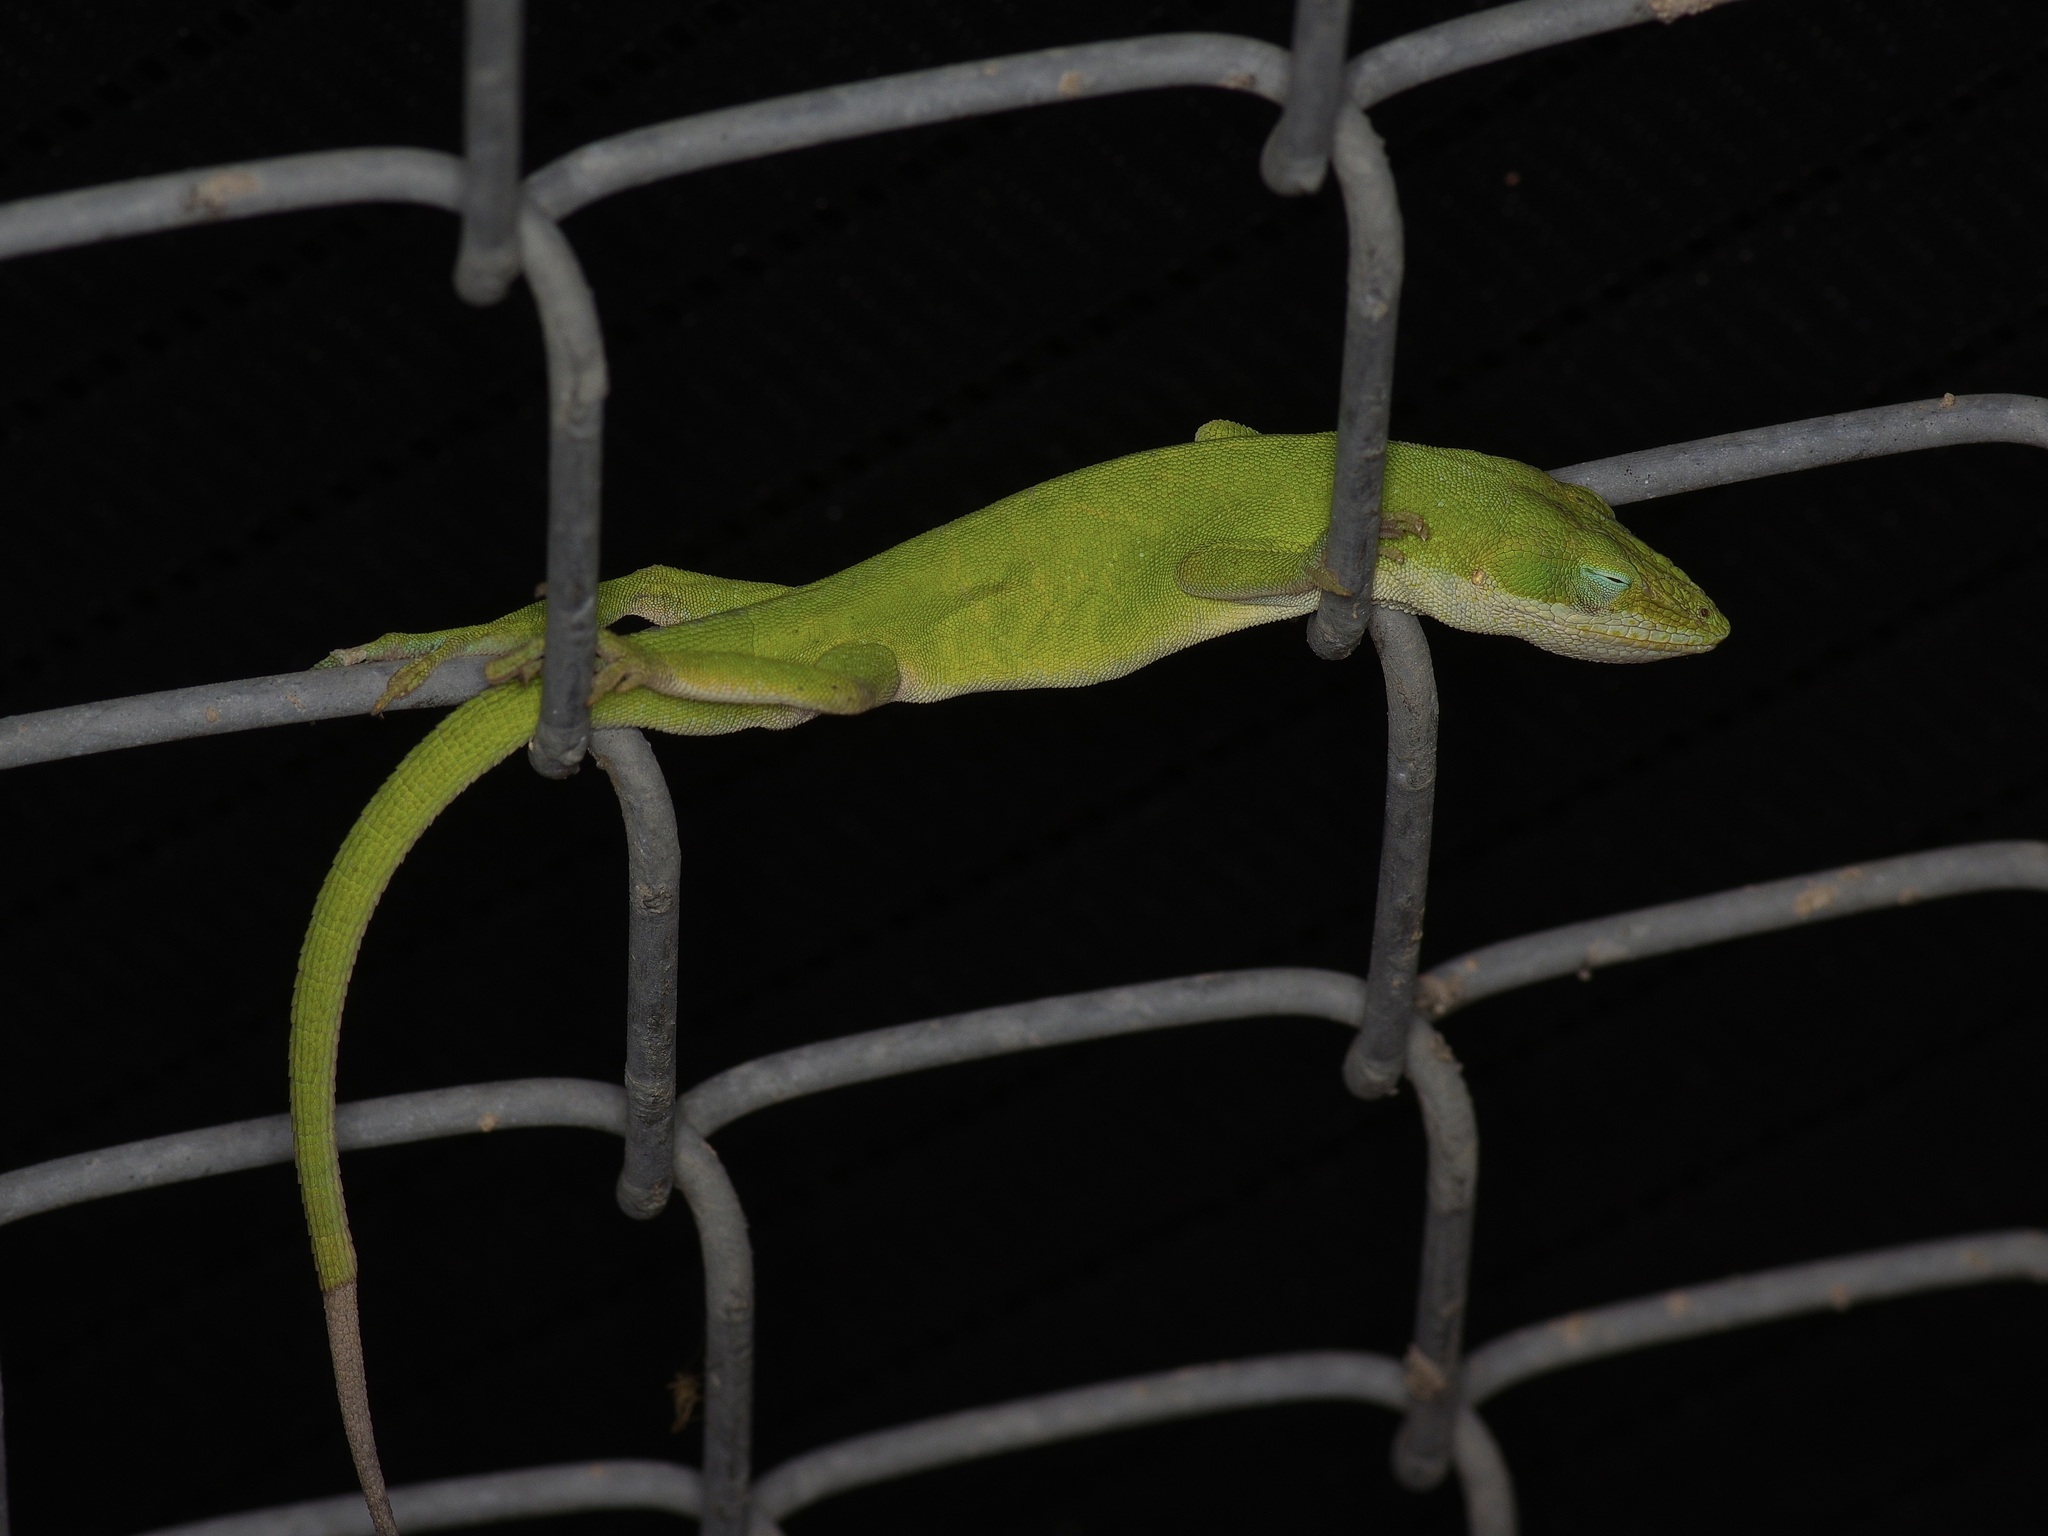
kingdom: Animalia
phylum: Chordata
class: Squamata
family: Dactyloidae
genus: Anolis
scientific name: Anolis carolinensis
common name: Green anole
